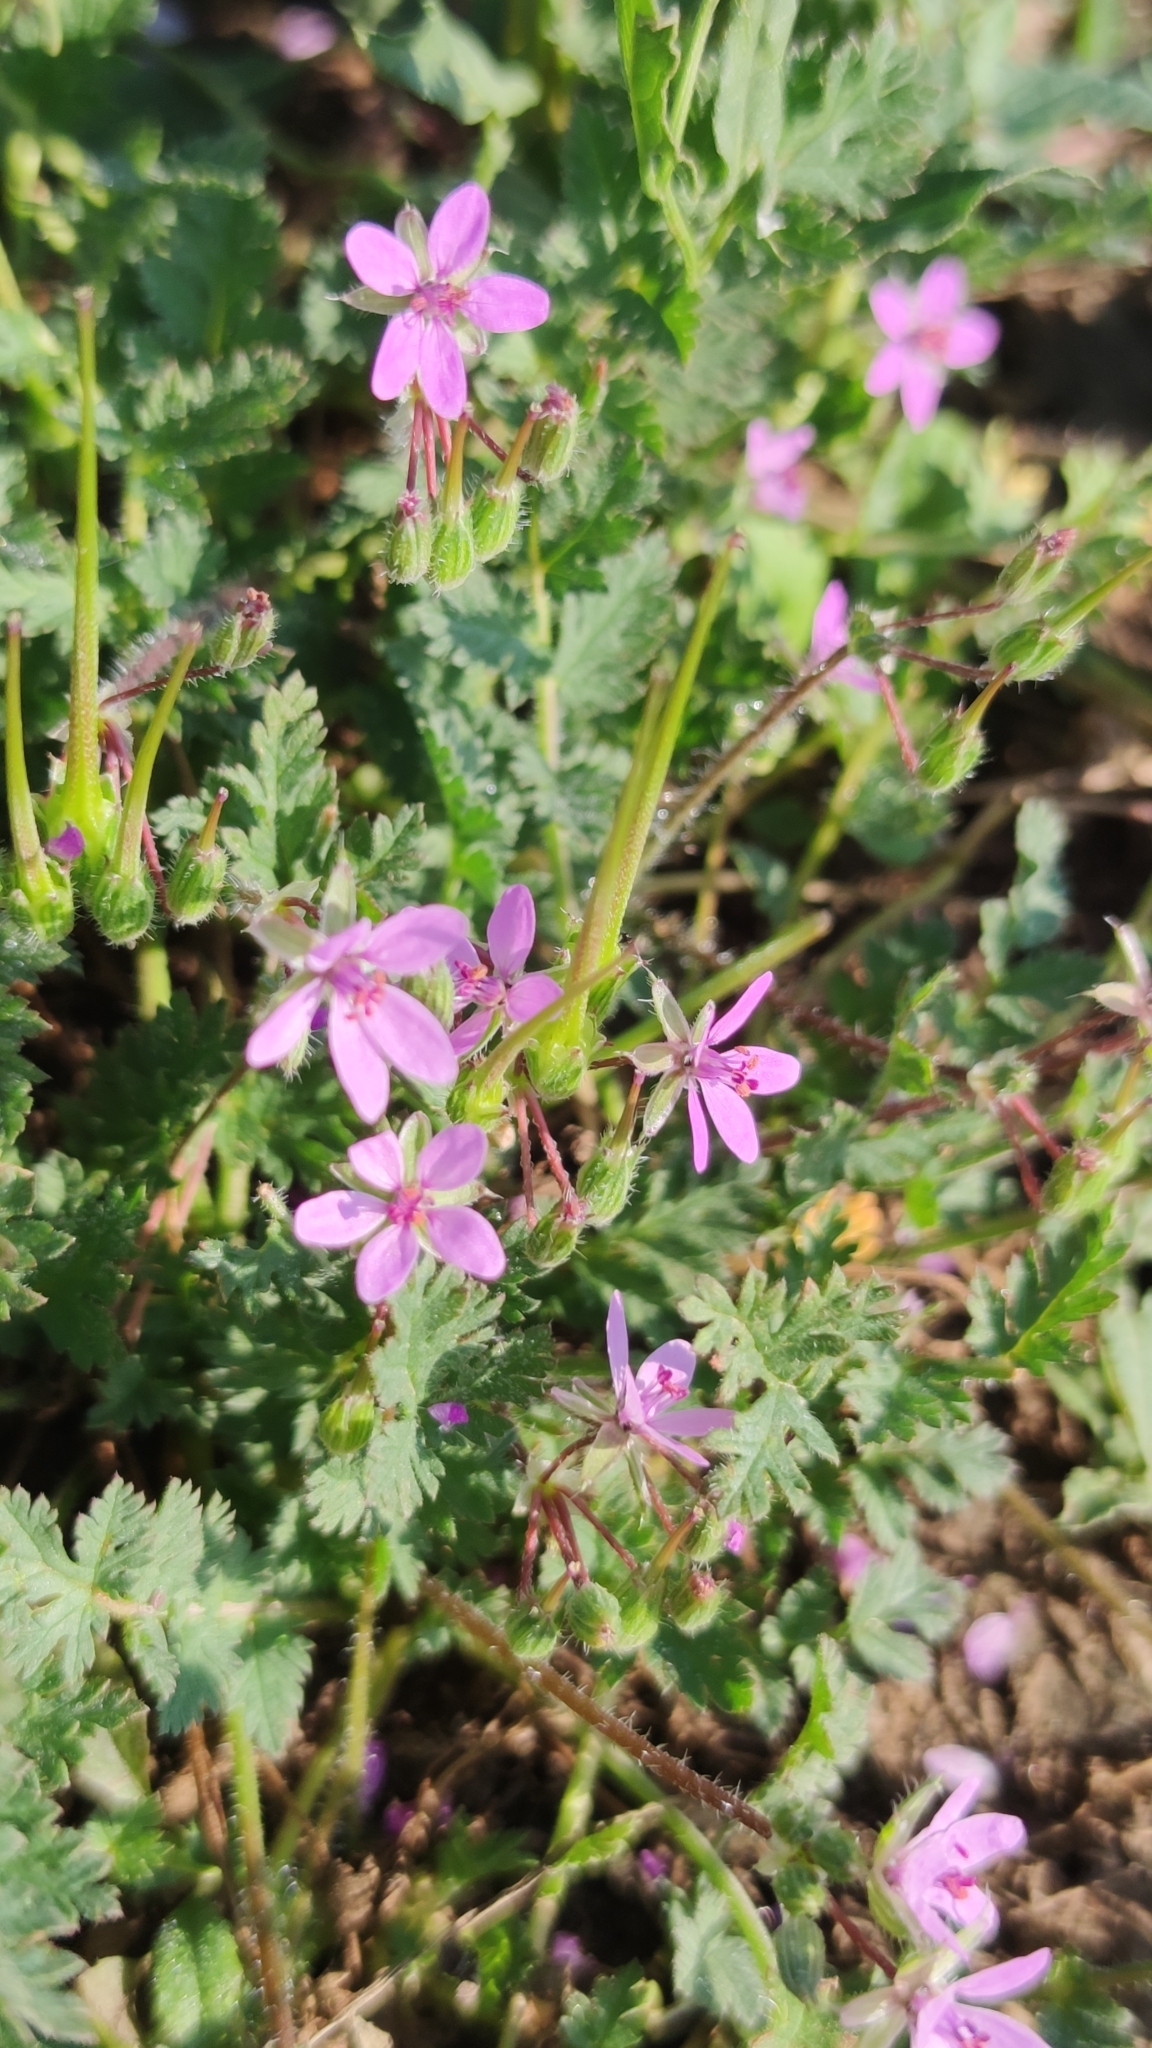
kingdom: Plantae
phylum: Tracheophyta
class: Magnoliopsida
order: Geraniales
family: Geraniaceae
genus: Erodium
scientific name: Erodium cicutarium
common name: Common stork's-bill
